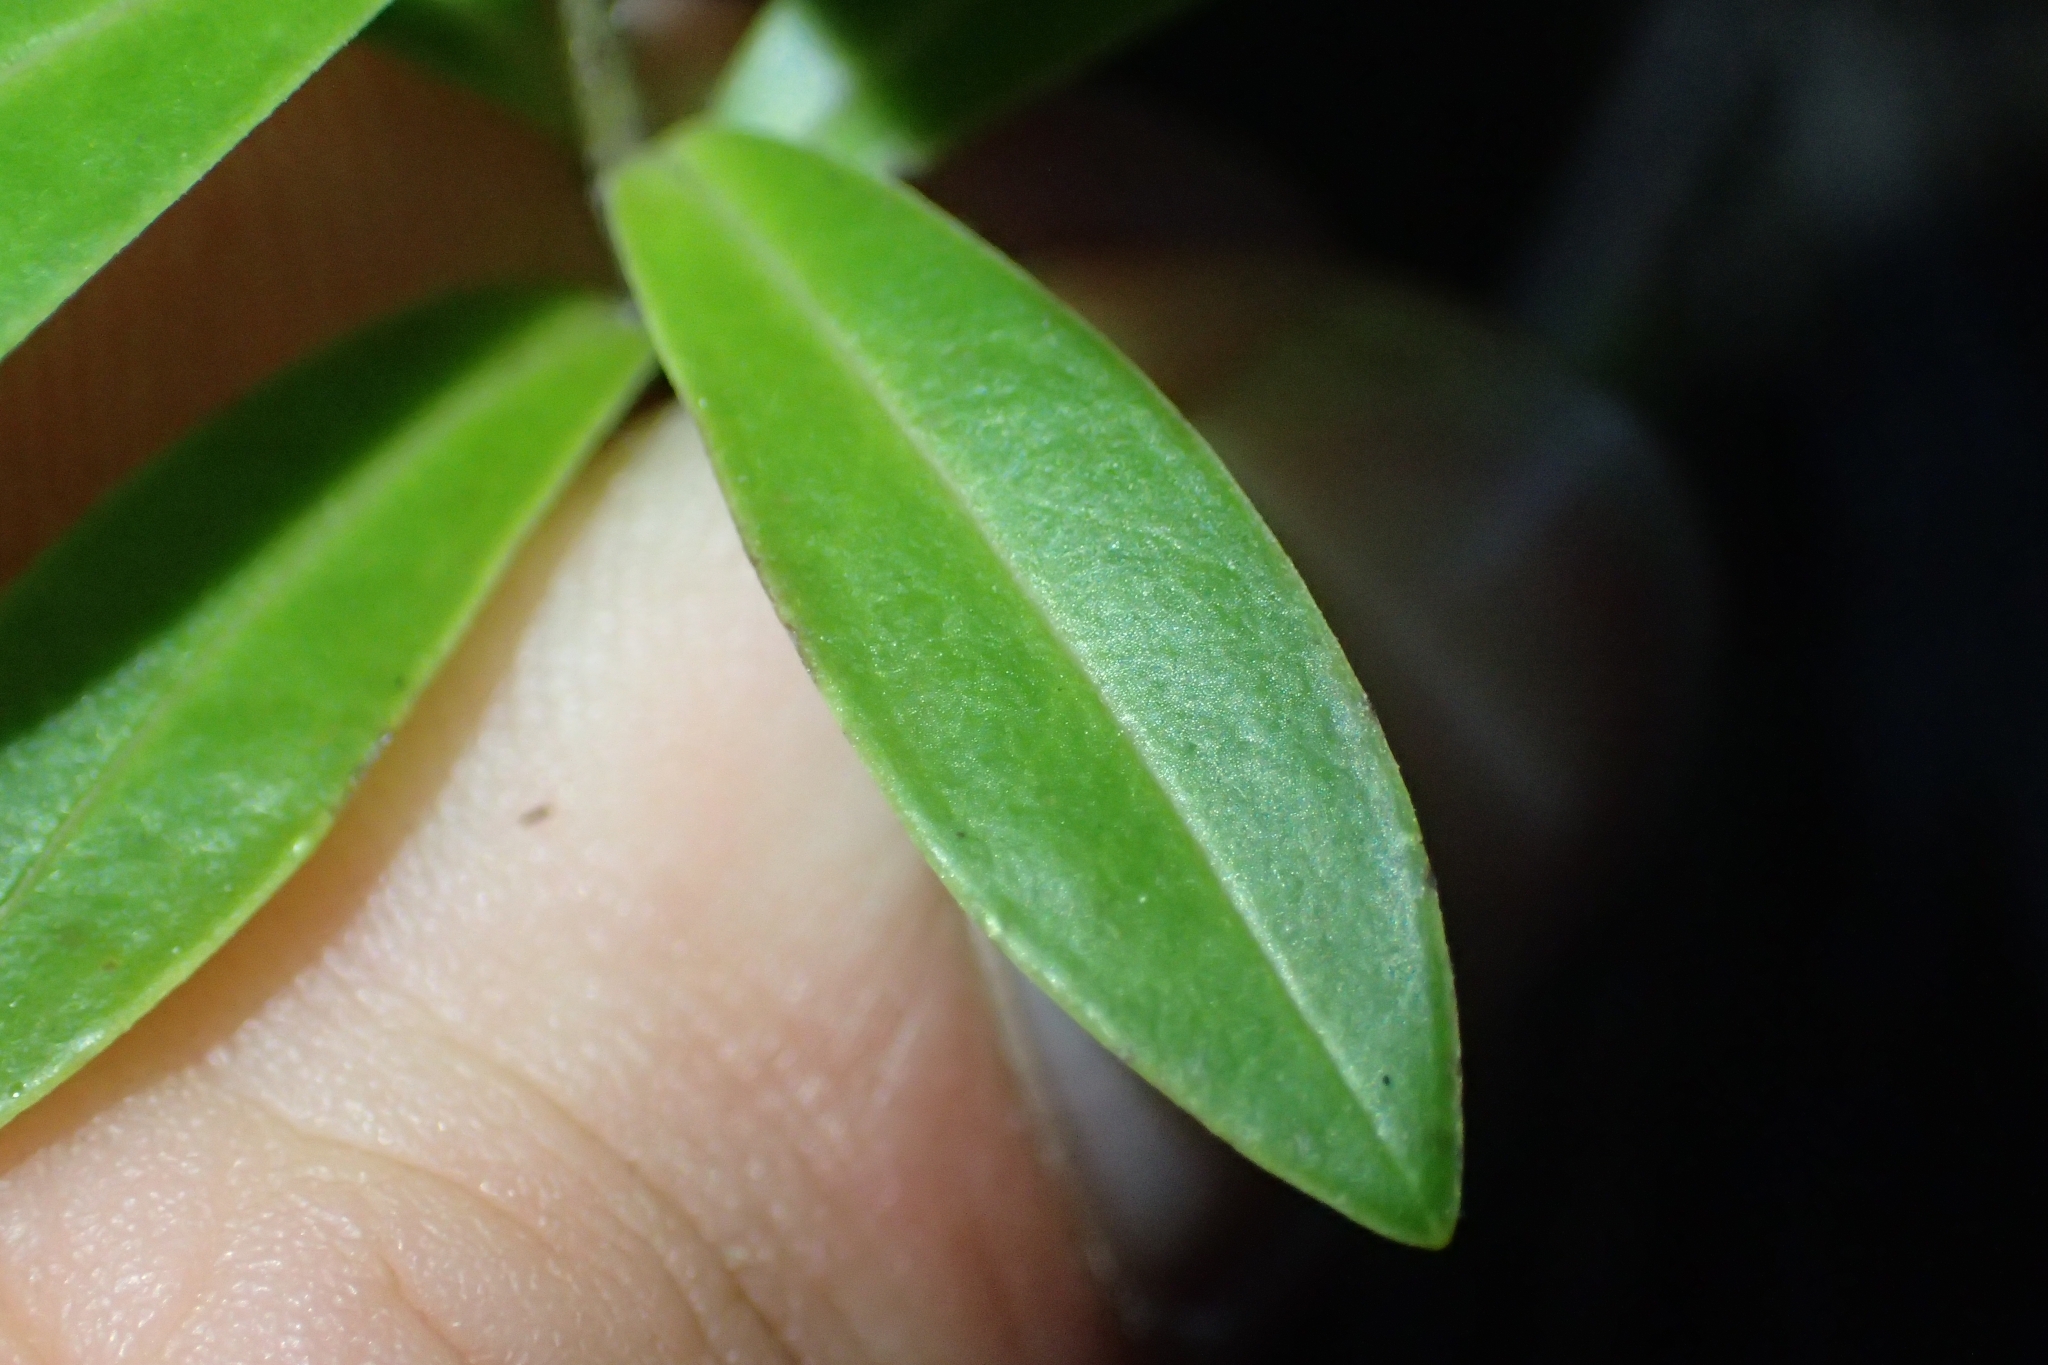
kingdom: Plantae
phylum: Tracheophyta
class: Magnoliopsida
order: Lamiales
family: Plantaginaceae
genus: Veronica
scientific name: Veronica stricta
